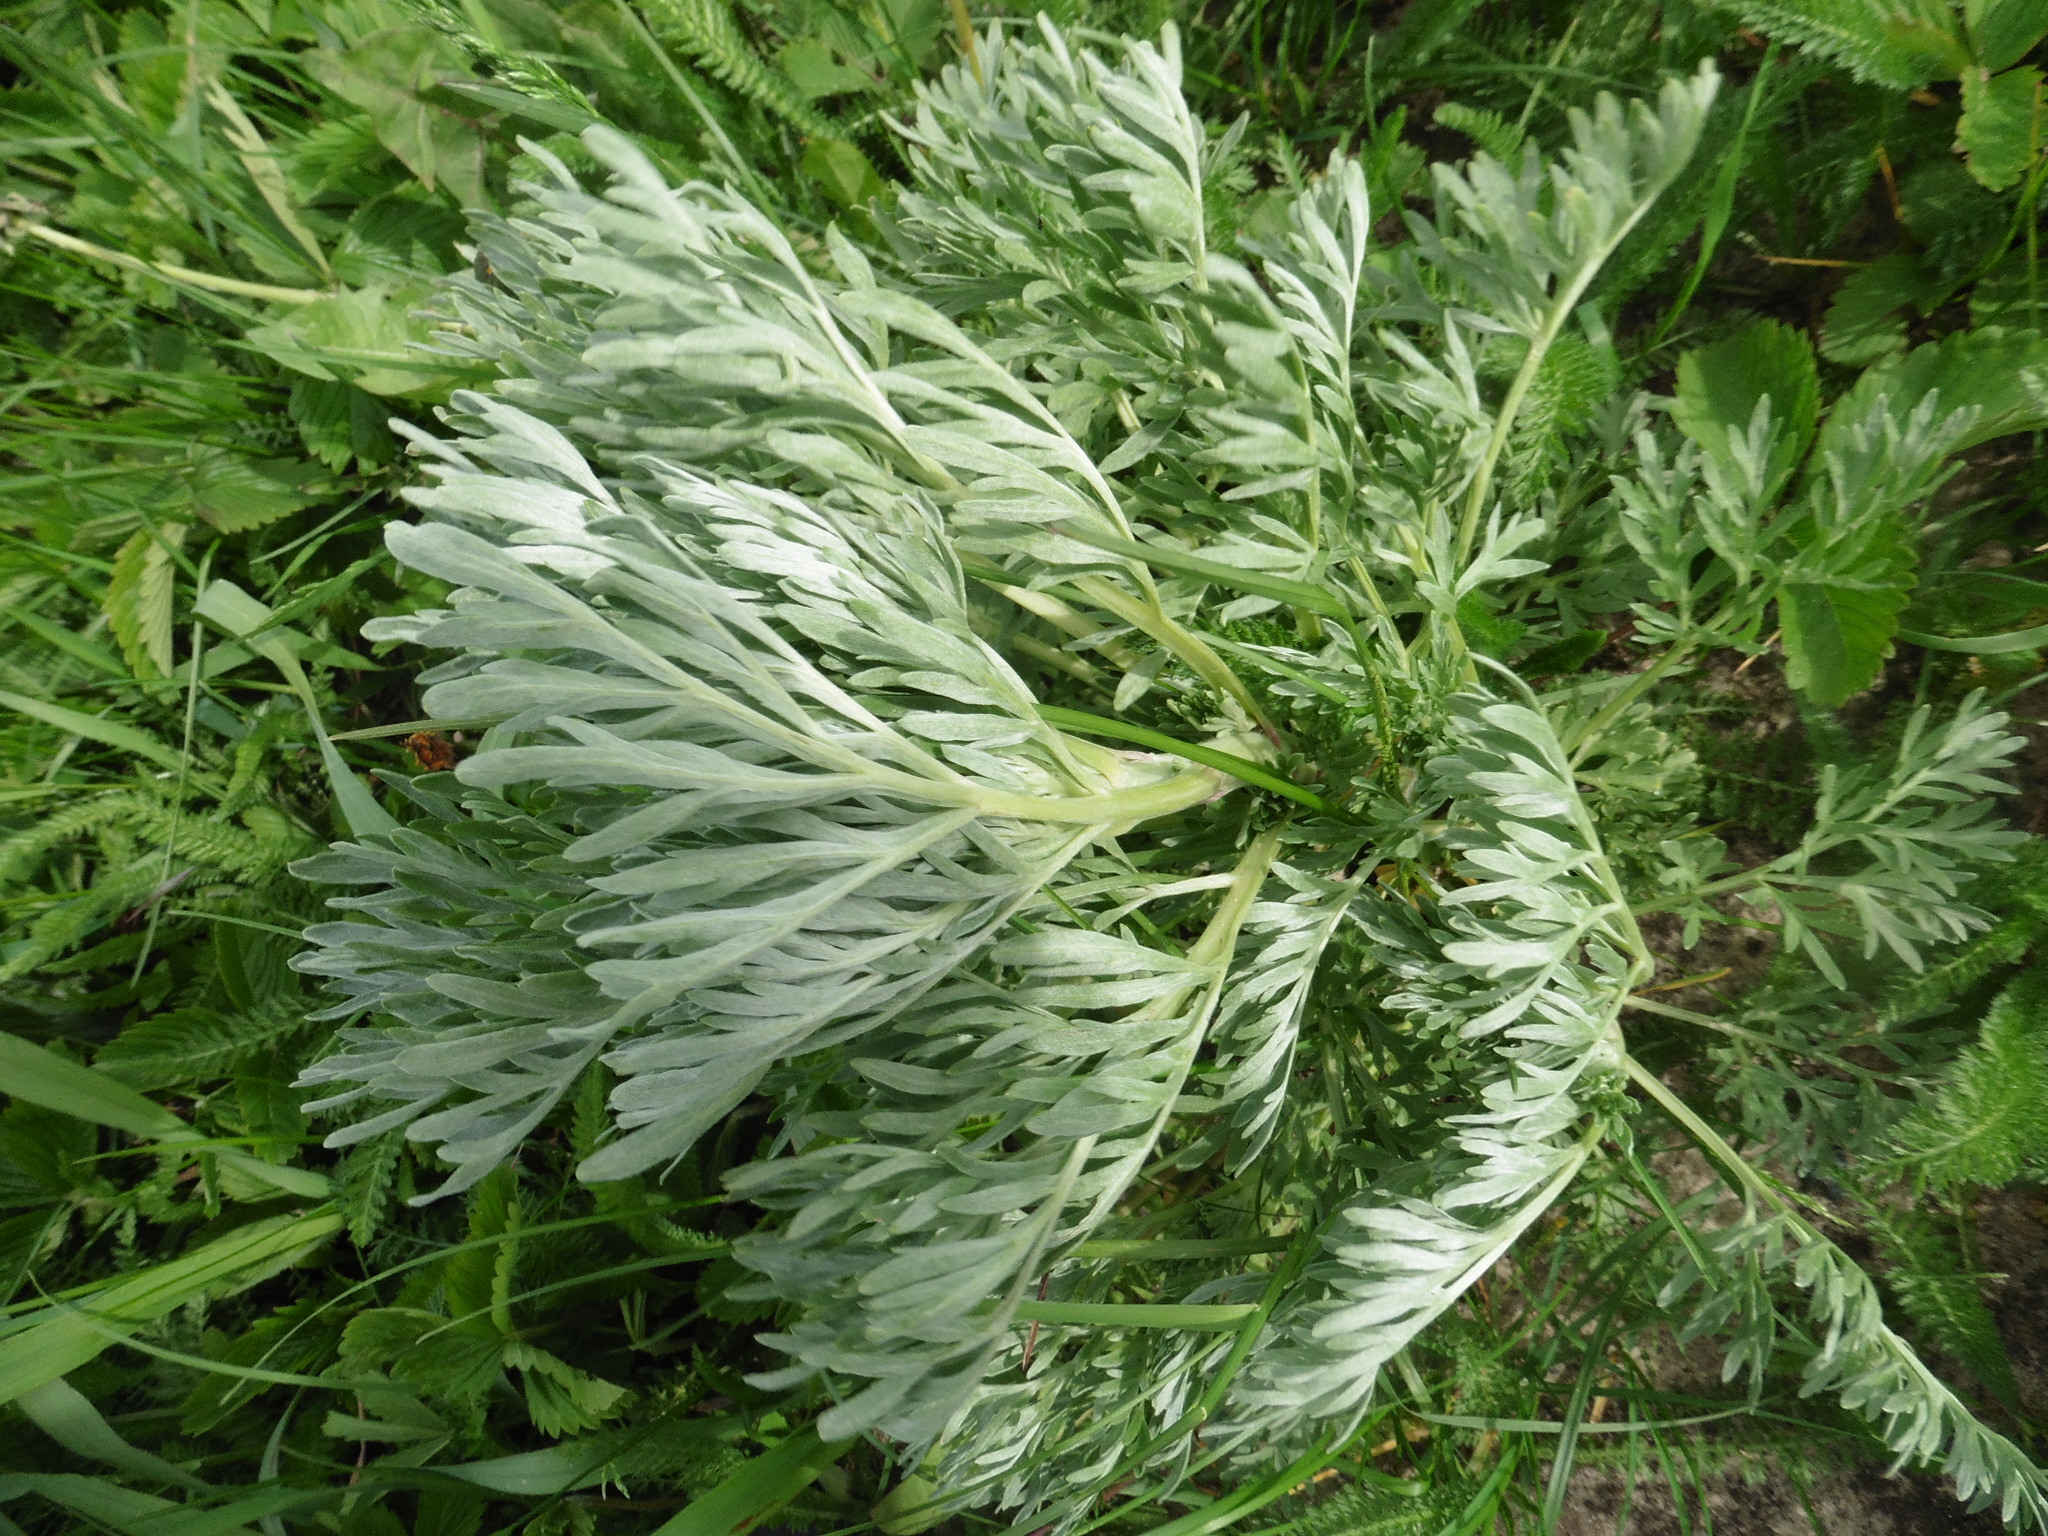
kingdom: Plantae
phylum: Tracheophyta
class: Magnoliopsida
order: Asterales
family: Asteraceae
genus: Artemisia
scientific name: Artemisia absinthium
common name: Wormwood
